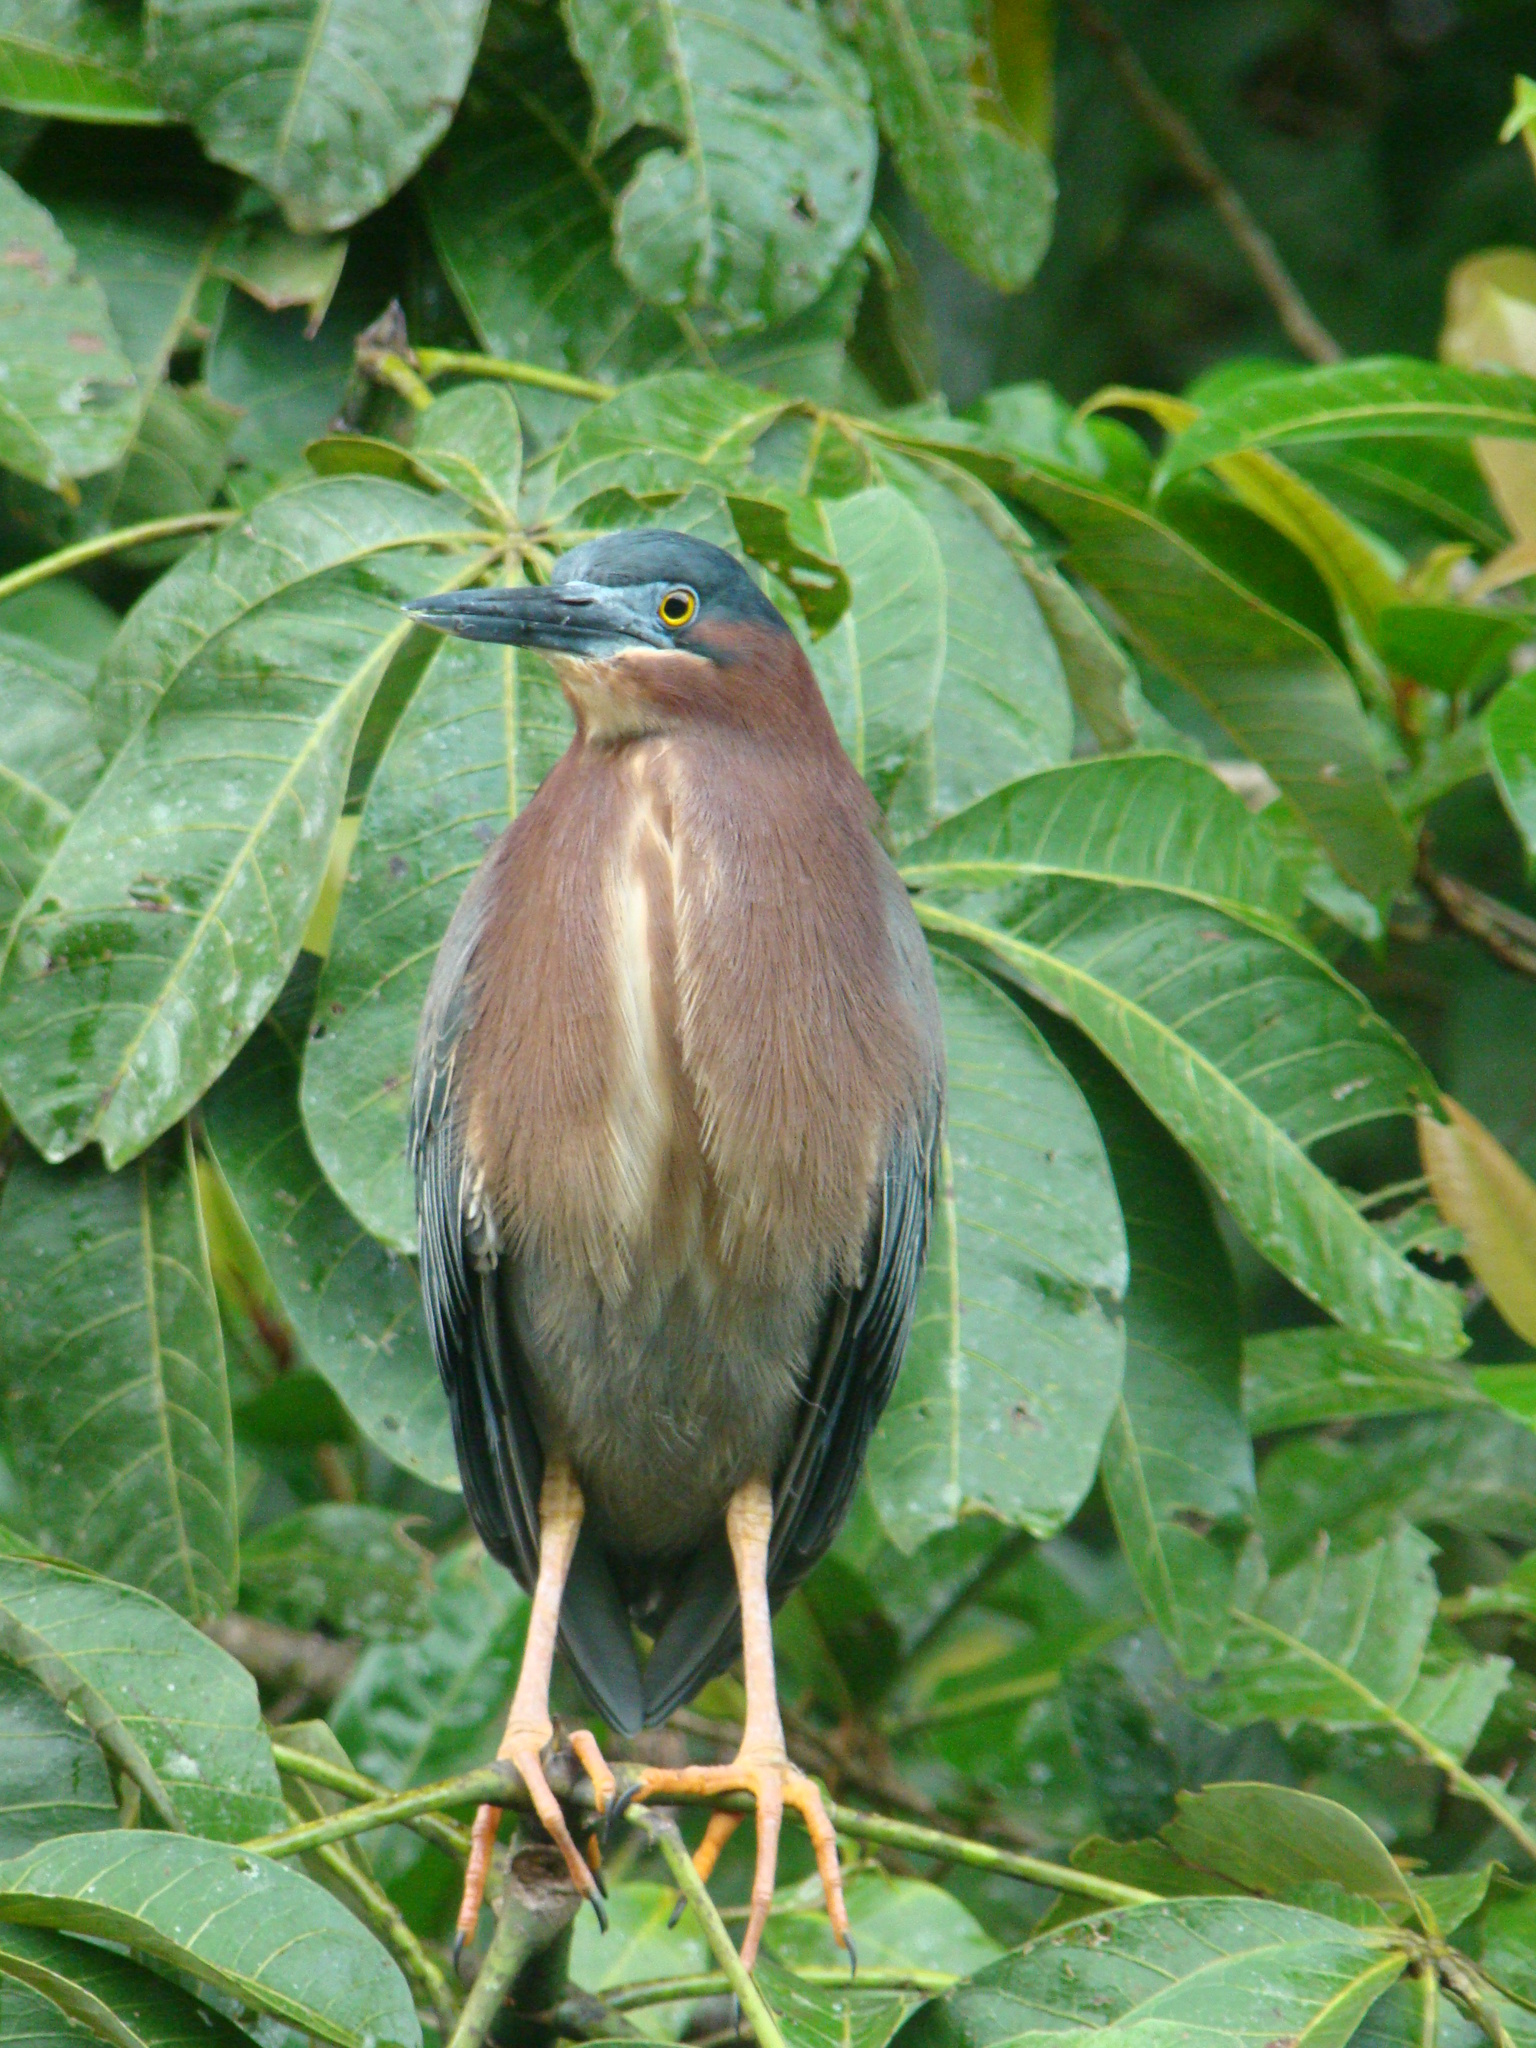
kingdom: Animalia
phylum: Chordata
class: Aves
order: Pelecaniformes
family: Ardeidae
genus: Butorides
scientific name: Butorides virescens
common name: Green heron
